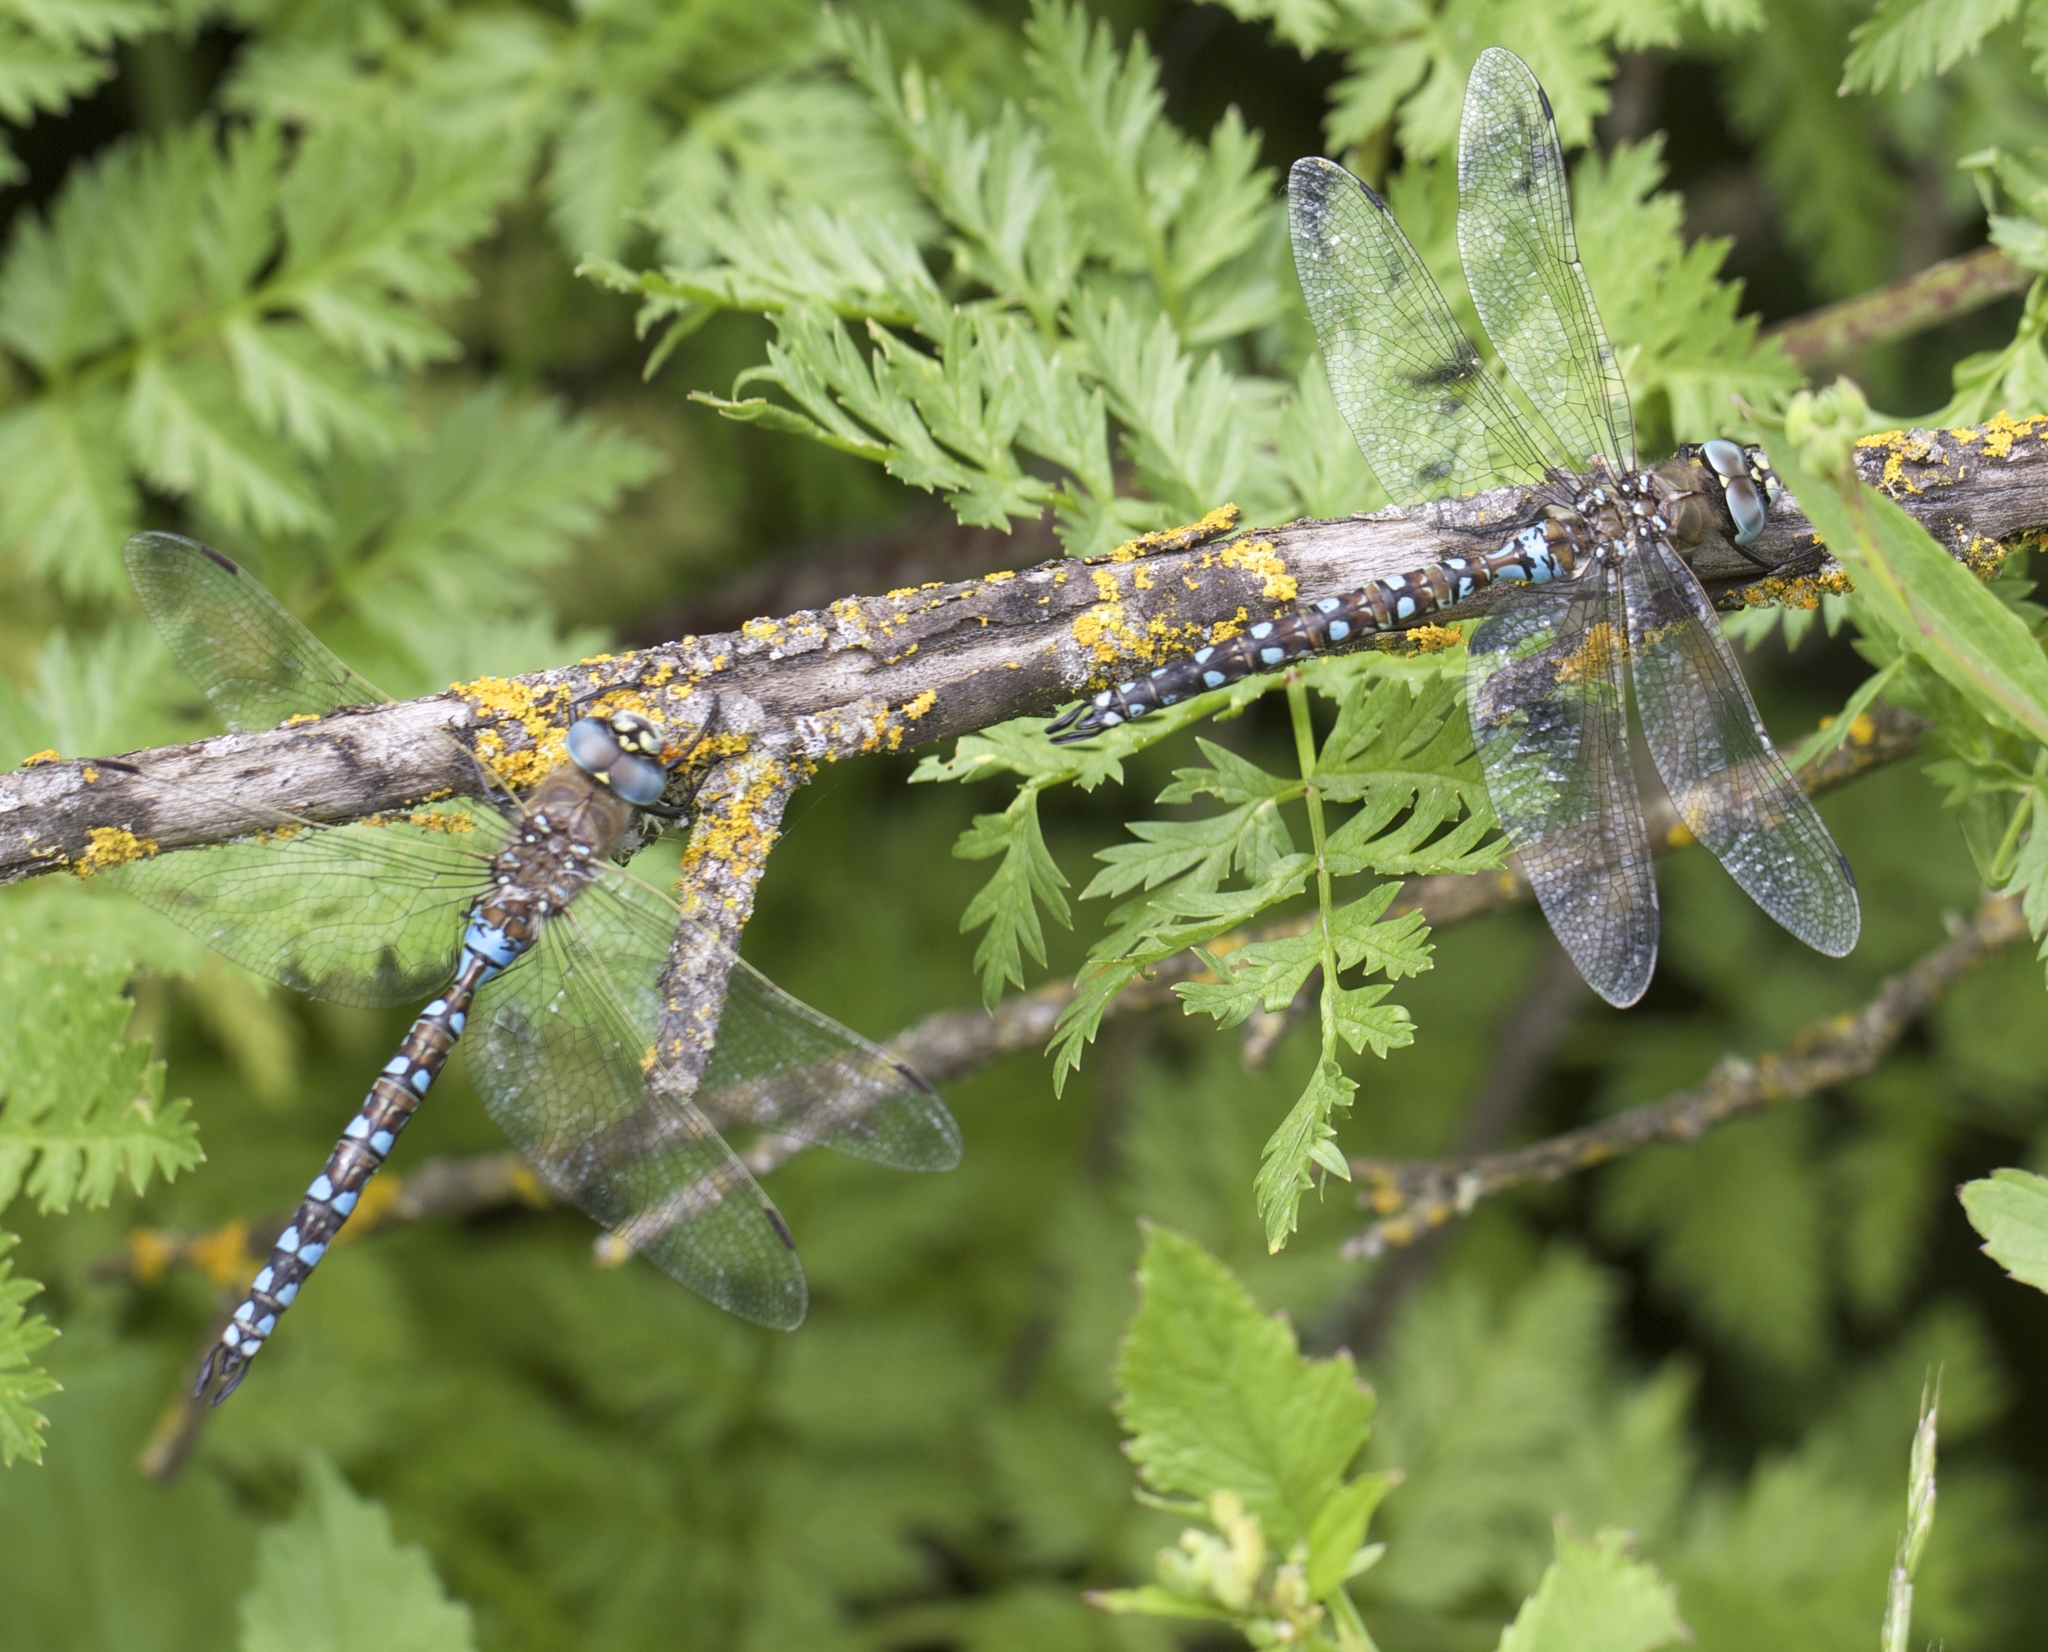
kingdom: Animalia
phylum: Arthropoda
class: Insecta
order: Odonata
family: Aeshnidae
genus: Rhionaeschna
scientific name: Rhionaeschna californica
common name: California darner
